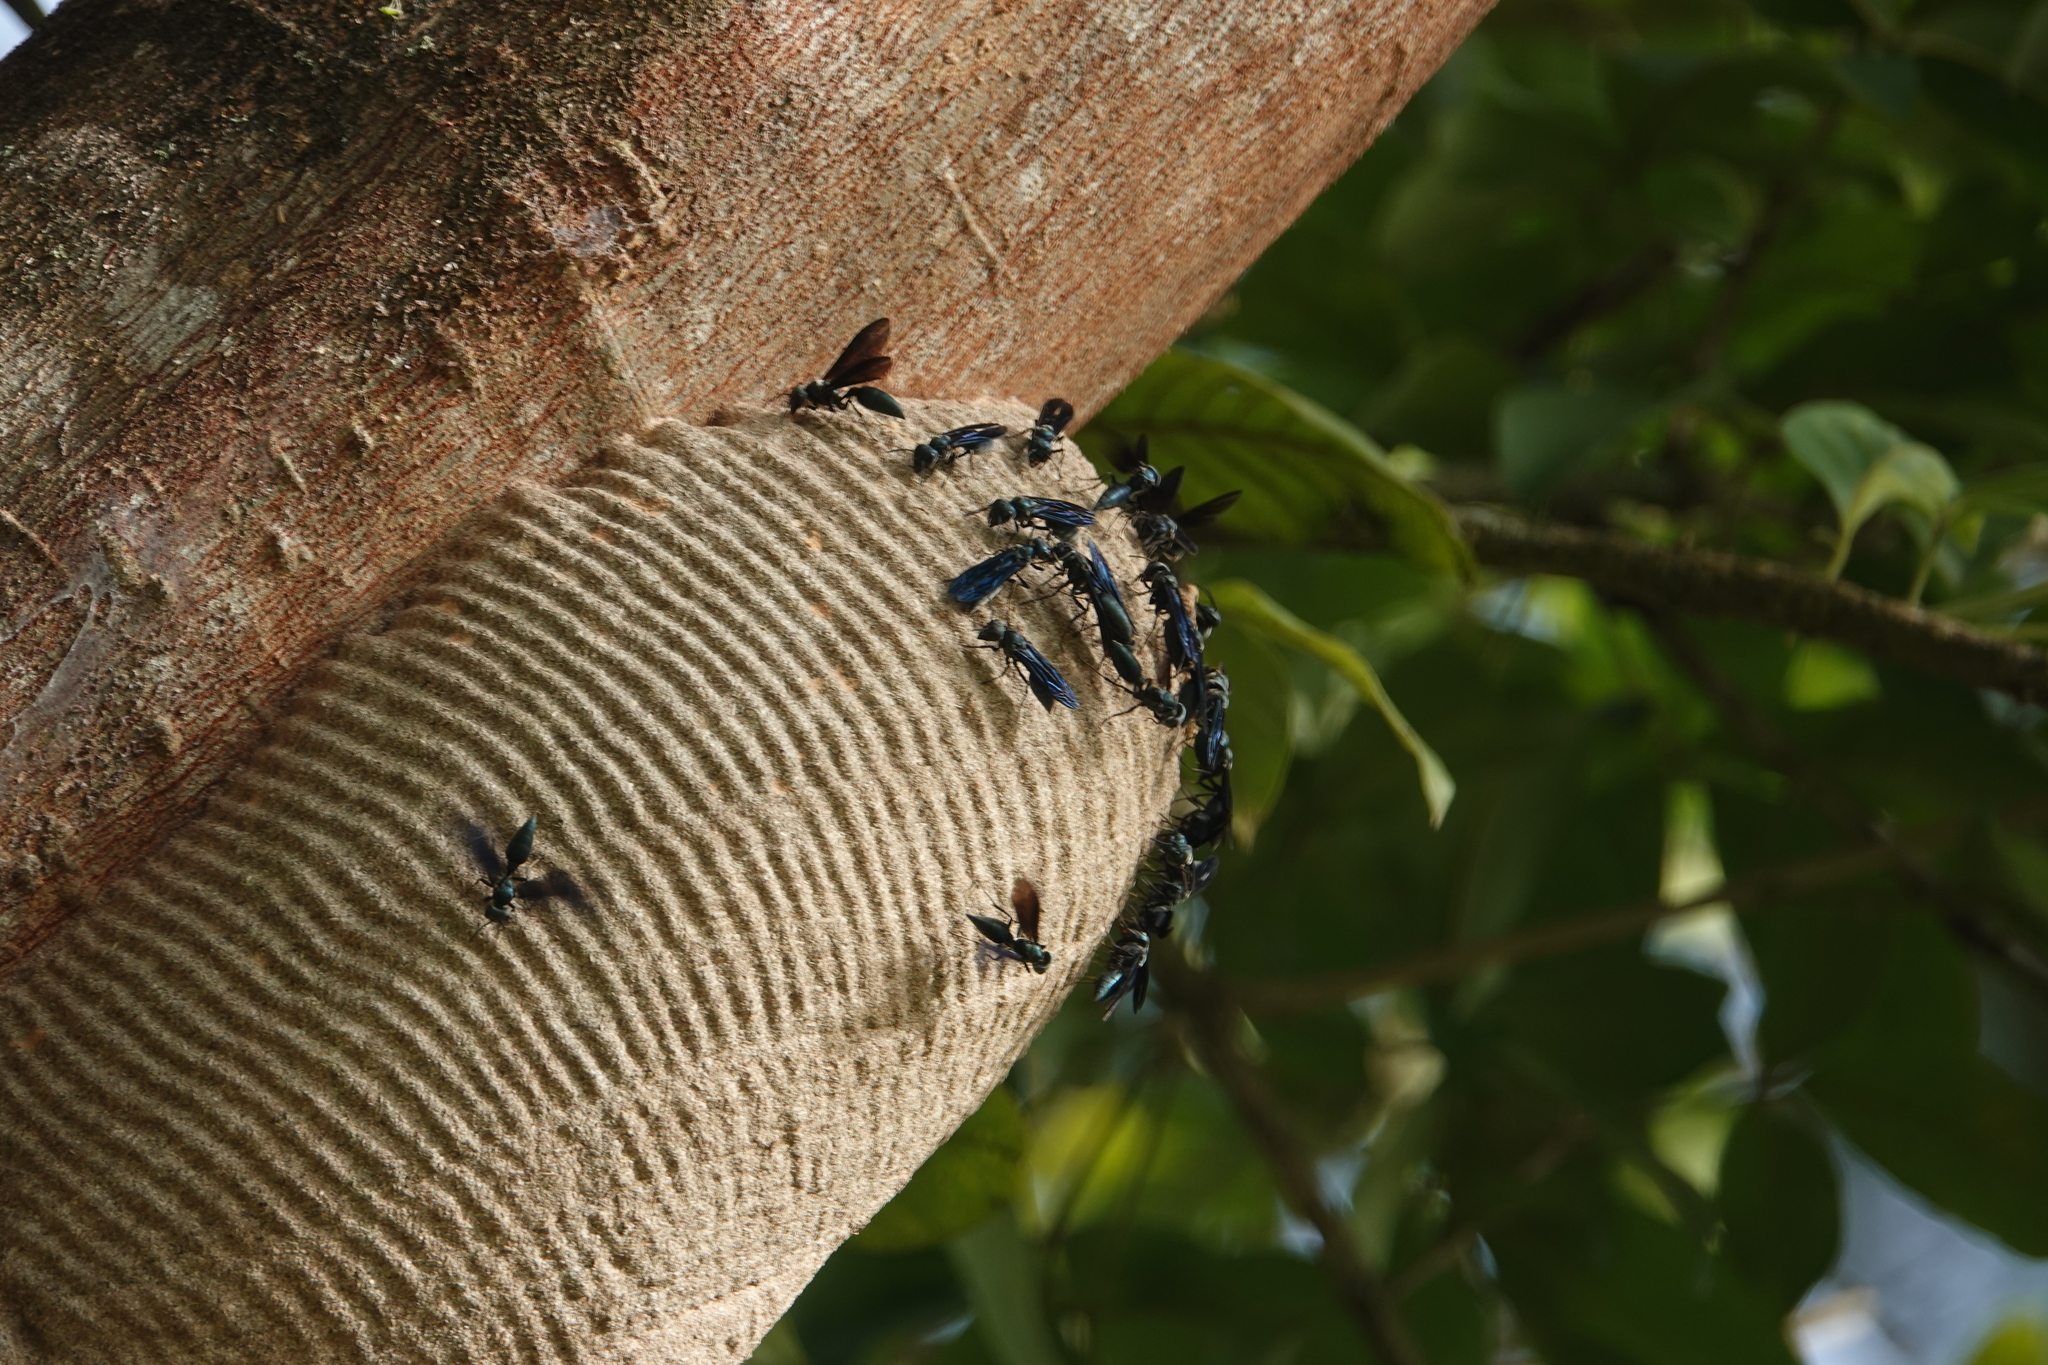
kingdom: Animalia
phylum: Arthropoda
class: Insecta
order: Hymenoptera
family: Vespidae
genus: Synoeca
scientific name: Synoeca surinama
